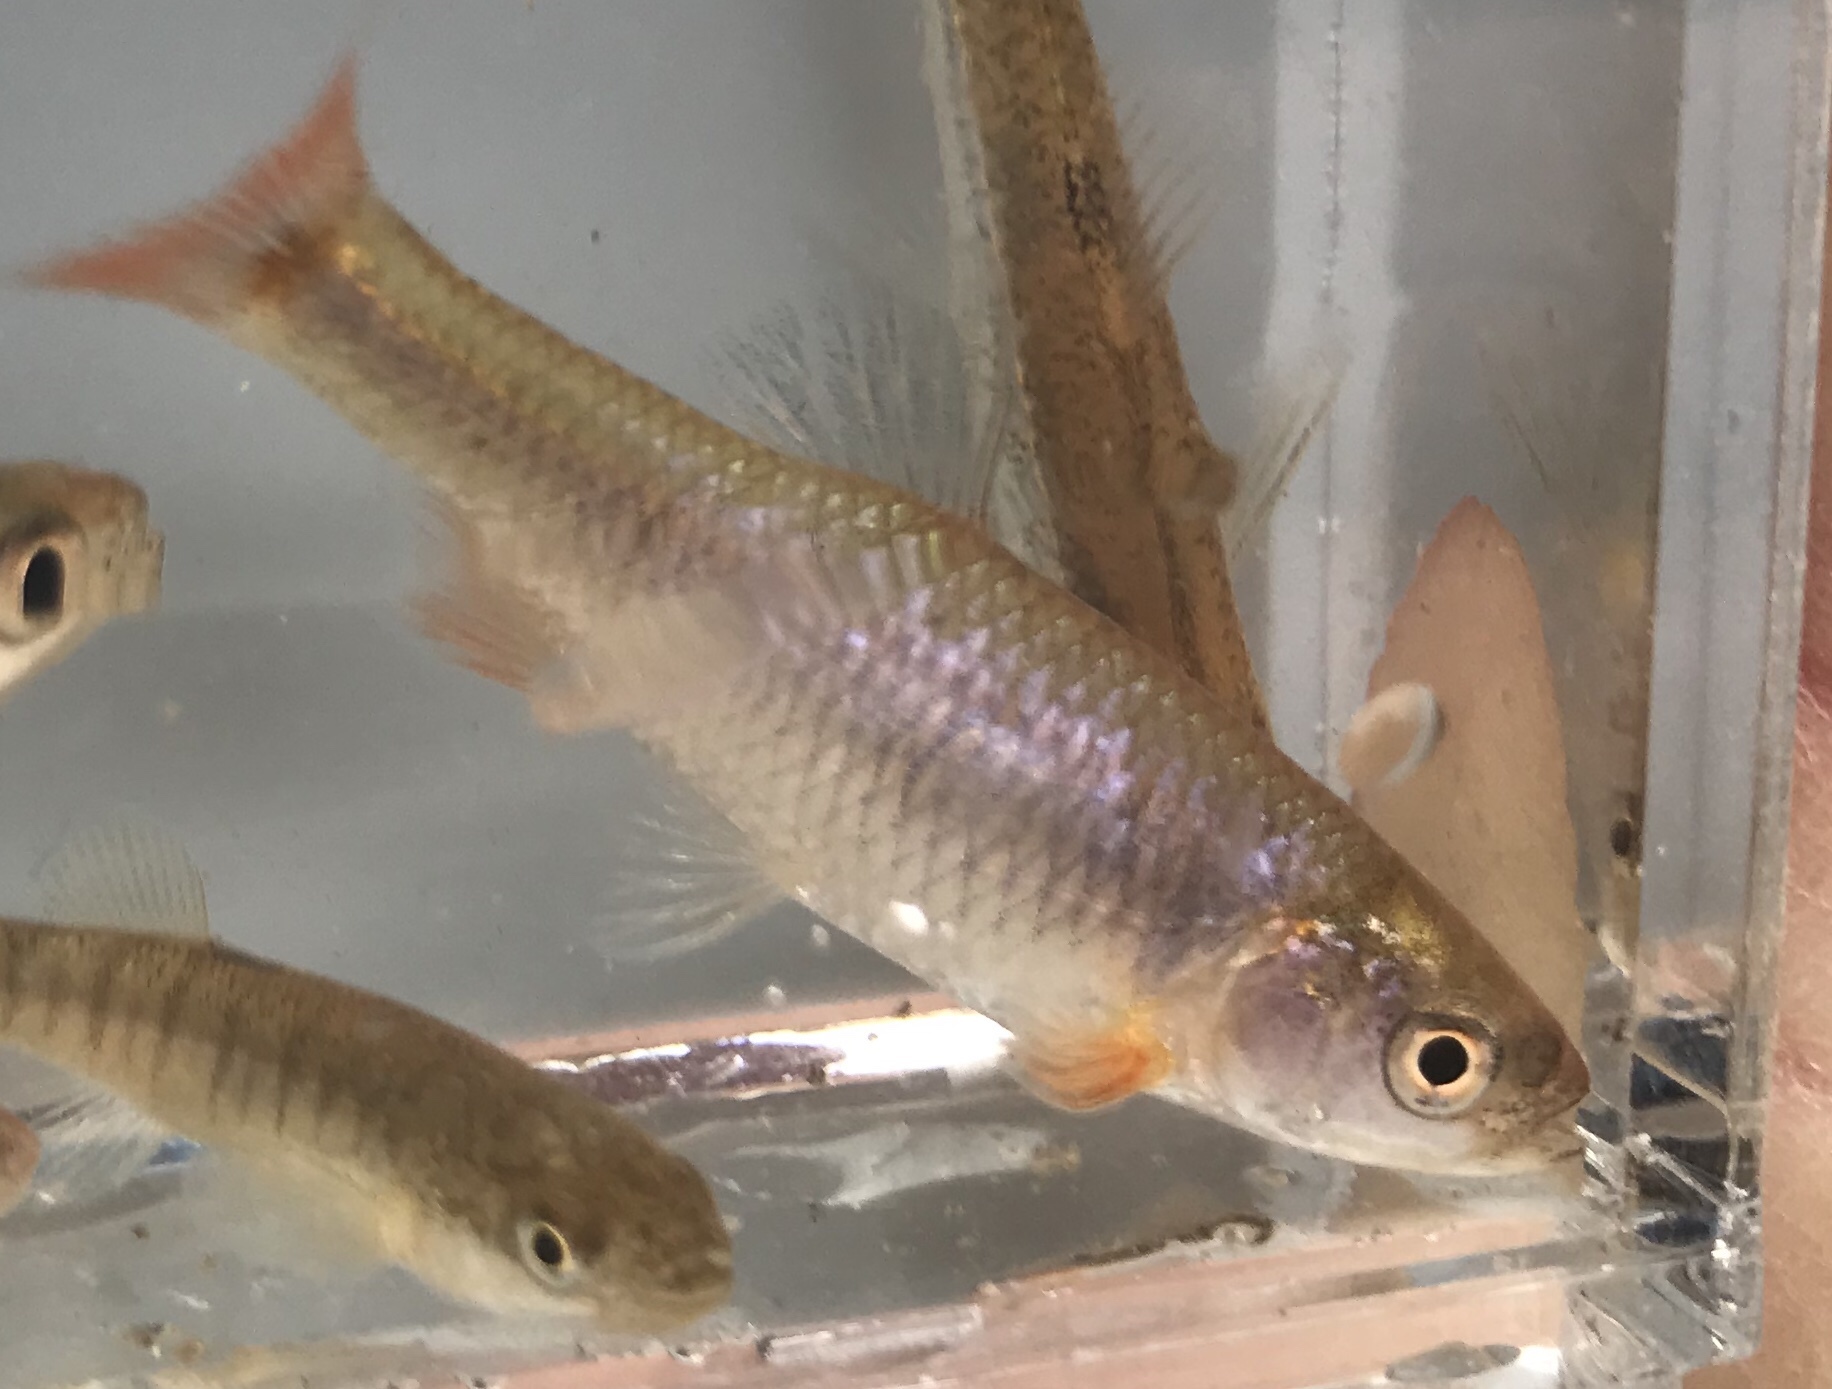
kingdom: Animalia
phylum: Chordata
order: Cypriniformes
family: Cyprinidae
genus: Cyprinella
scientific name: Cyprinella lutrensis
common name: Red shiner
